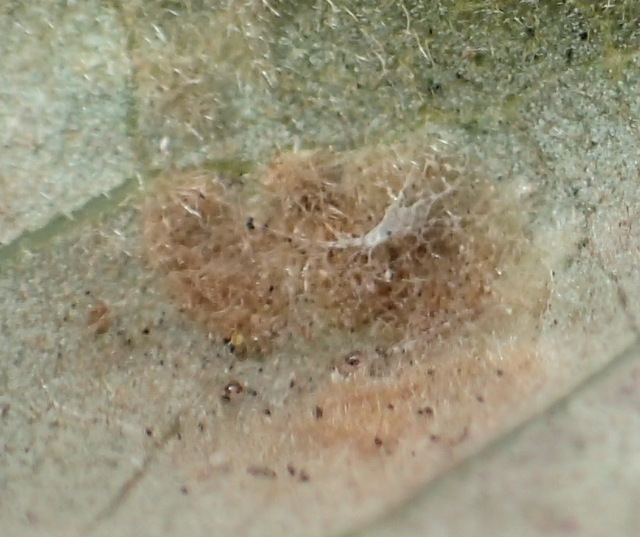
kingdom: Animalia
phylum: Arthropoda
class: Arachnida
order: Trombidiformes
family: Eriophyidae
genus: Aceria
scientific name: Aceria quercina
